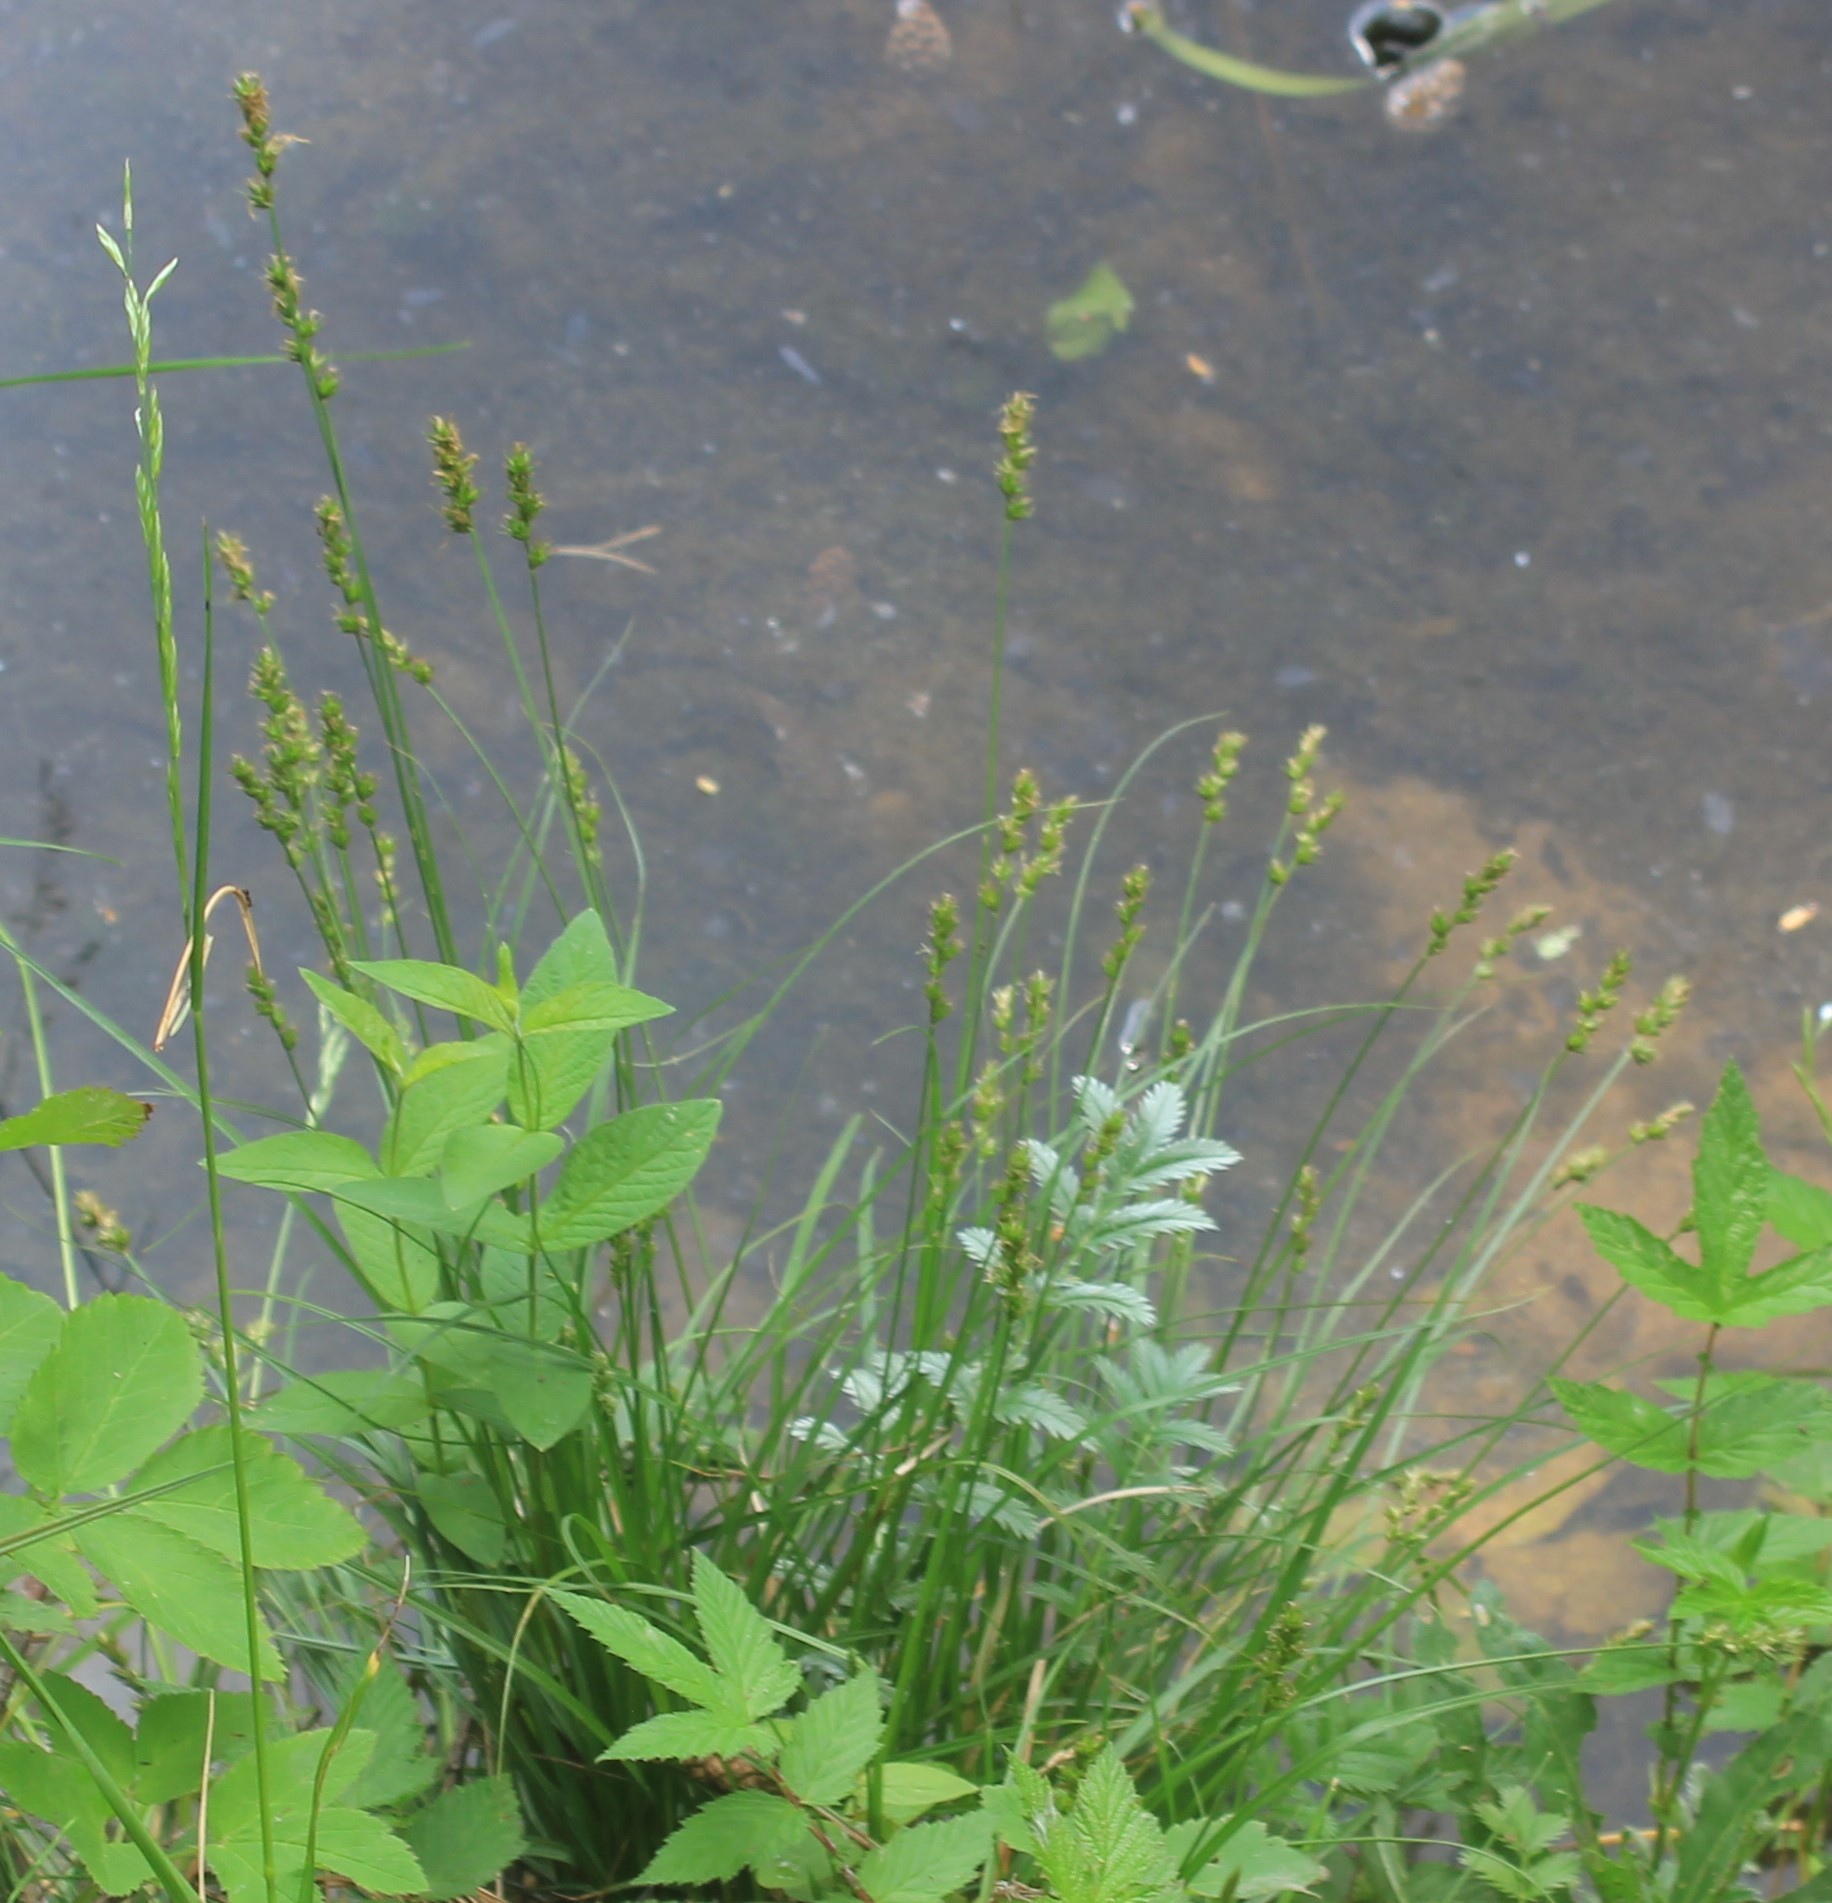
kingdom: Plantae
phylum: Tracheophyta
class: Liliopsida
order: Poales
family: Cyperaceae
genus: Carex
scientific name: Carex spicata
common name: Spiked sedge
